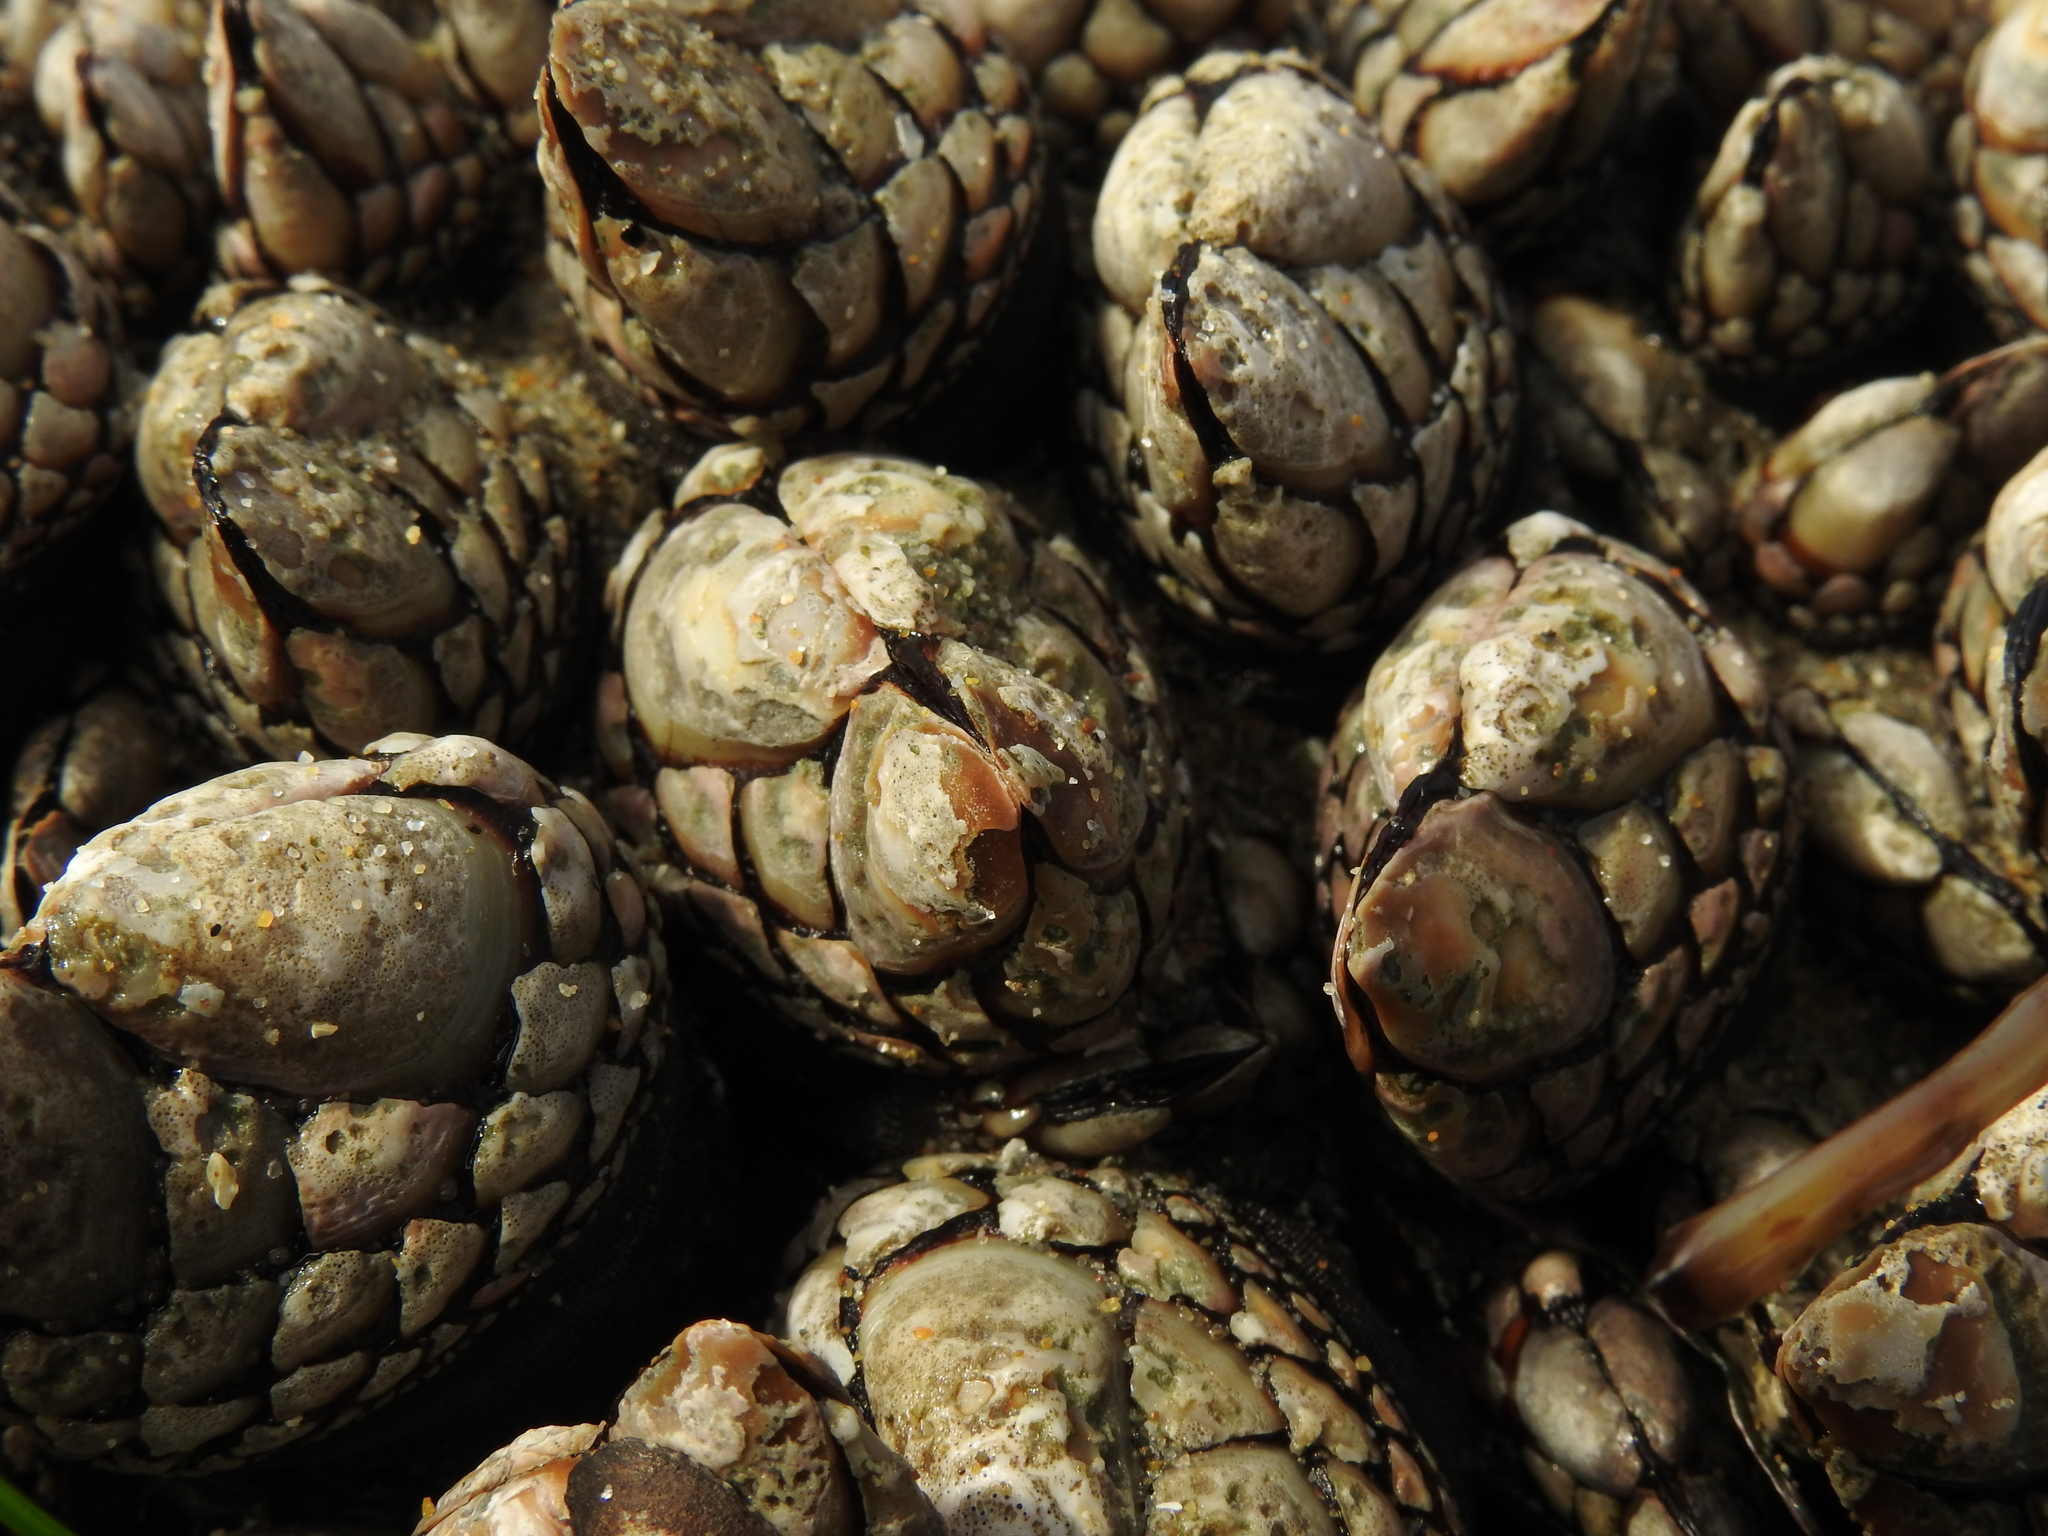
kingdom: Animalia
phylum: Arthropoda
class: Maxillopoda
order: Pedunculata
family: Pollicipedidae
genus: Pollicipes
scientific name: Pollicipes polymerus
